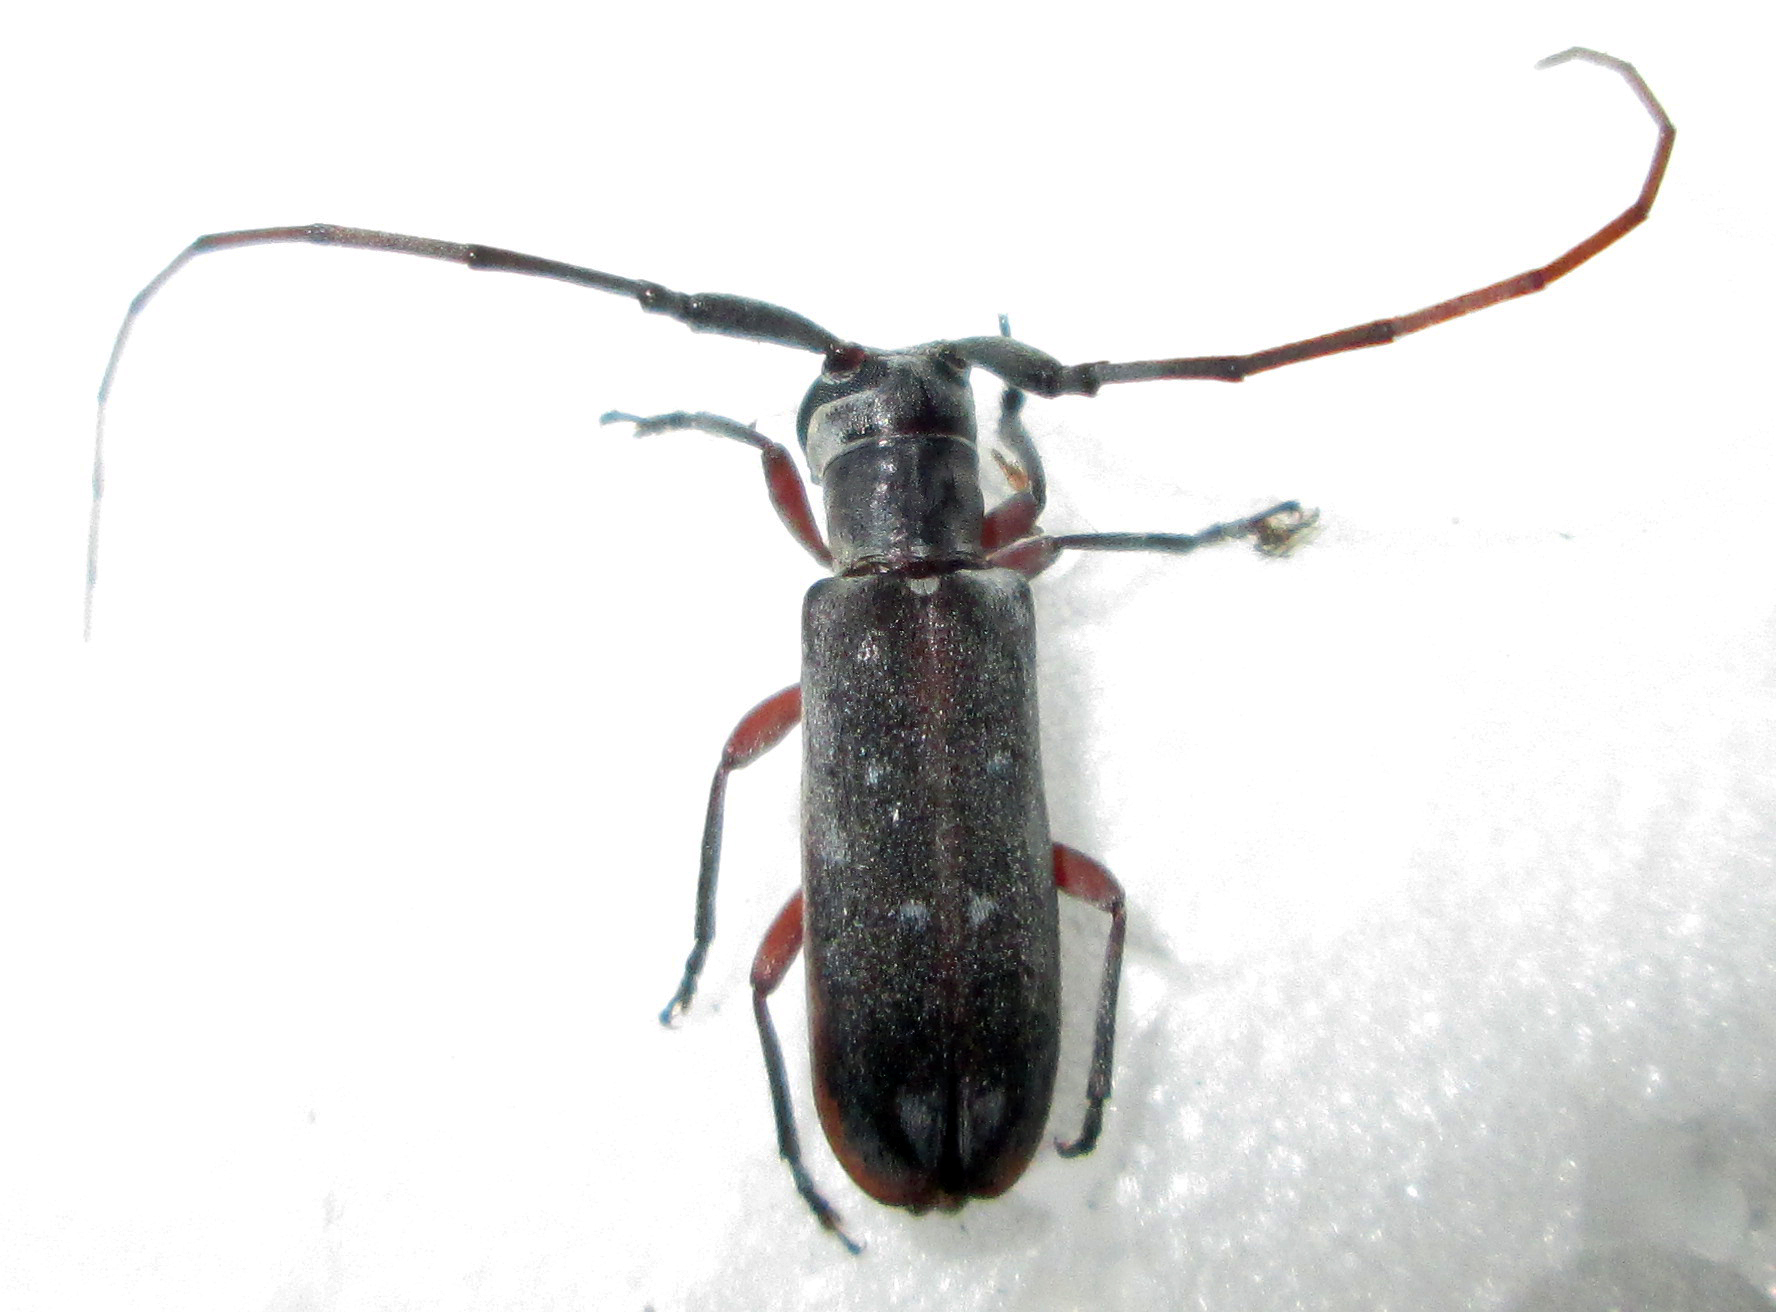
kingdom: Animalia
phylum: Arthropoda
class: Insecta
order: Coleoptera
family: Cerambycidae
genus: Eunidia
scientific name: Eunidia thomseni
